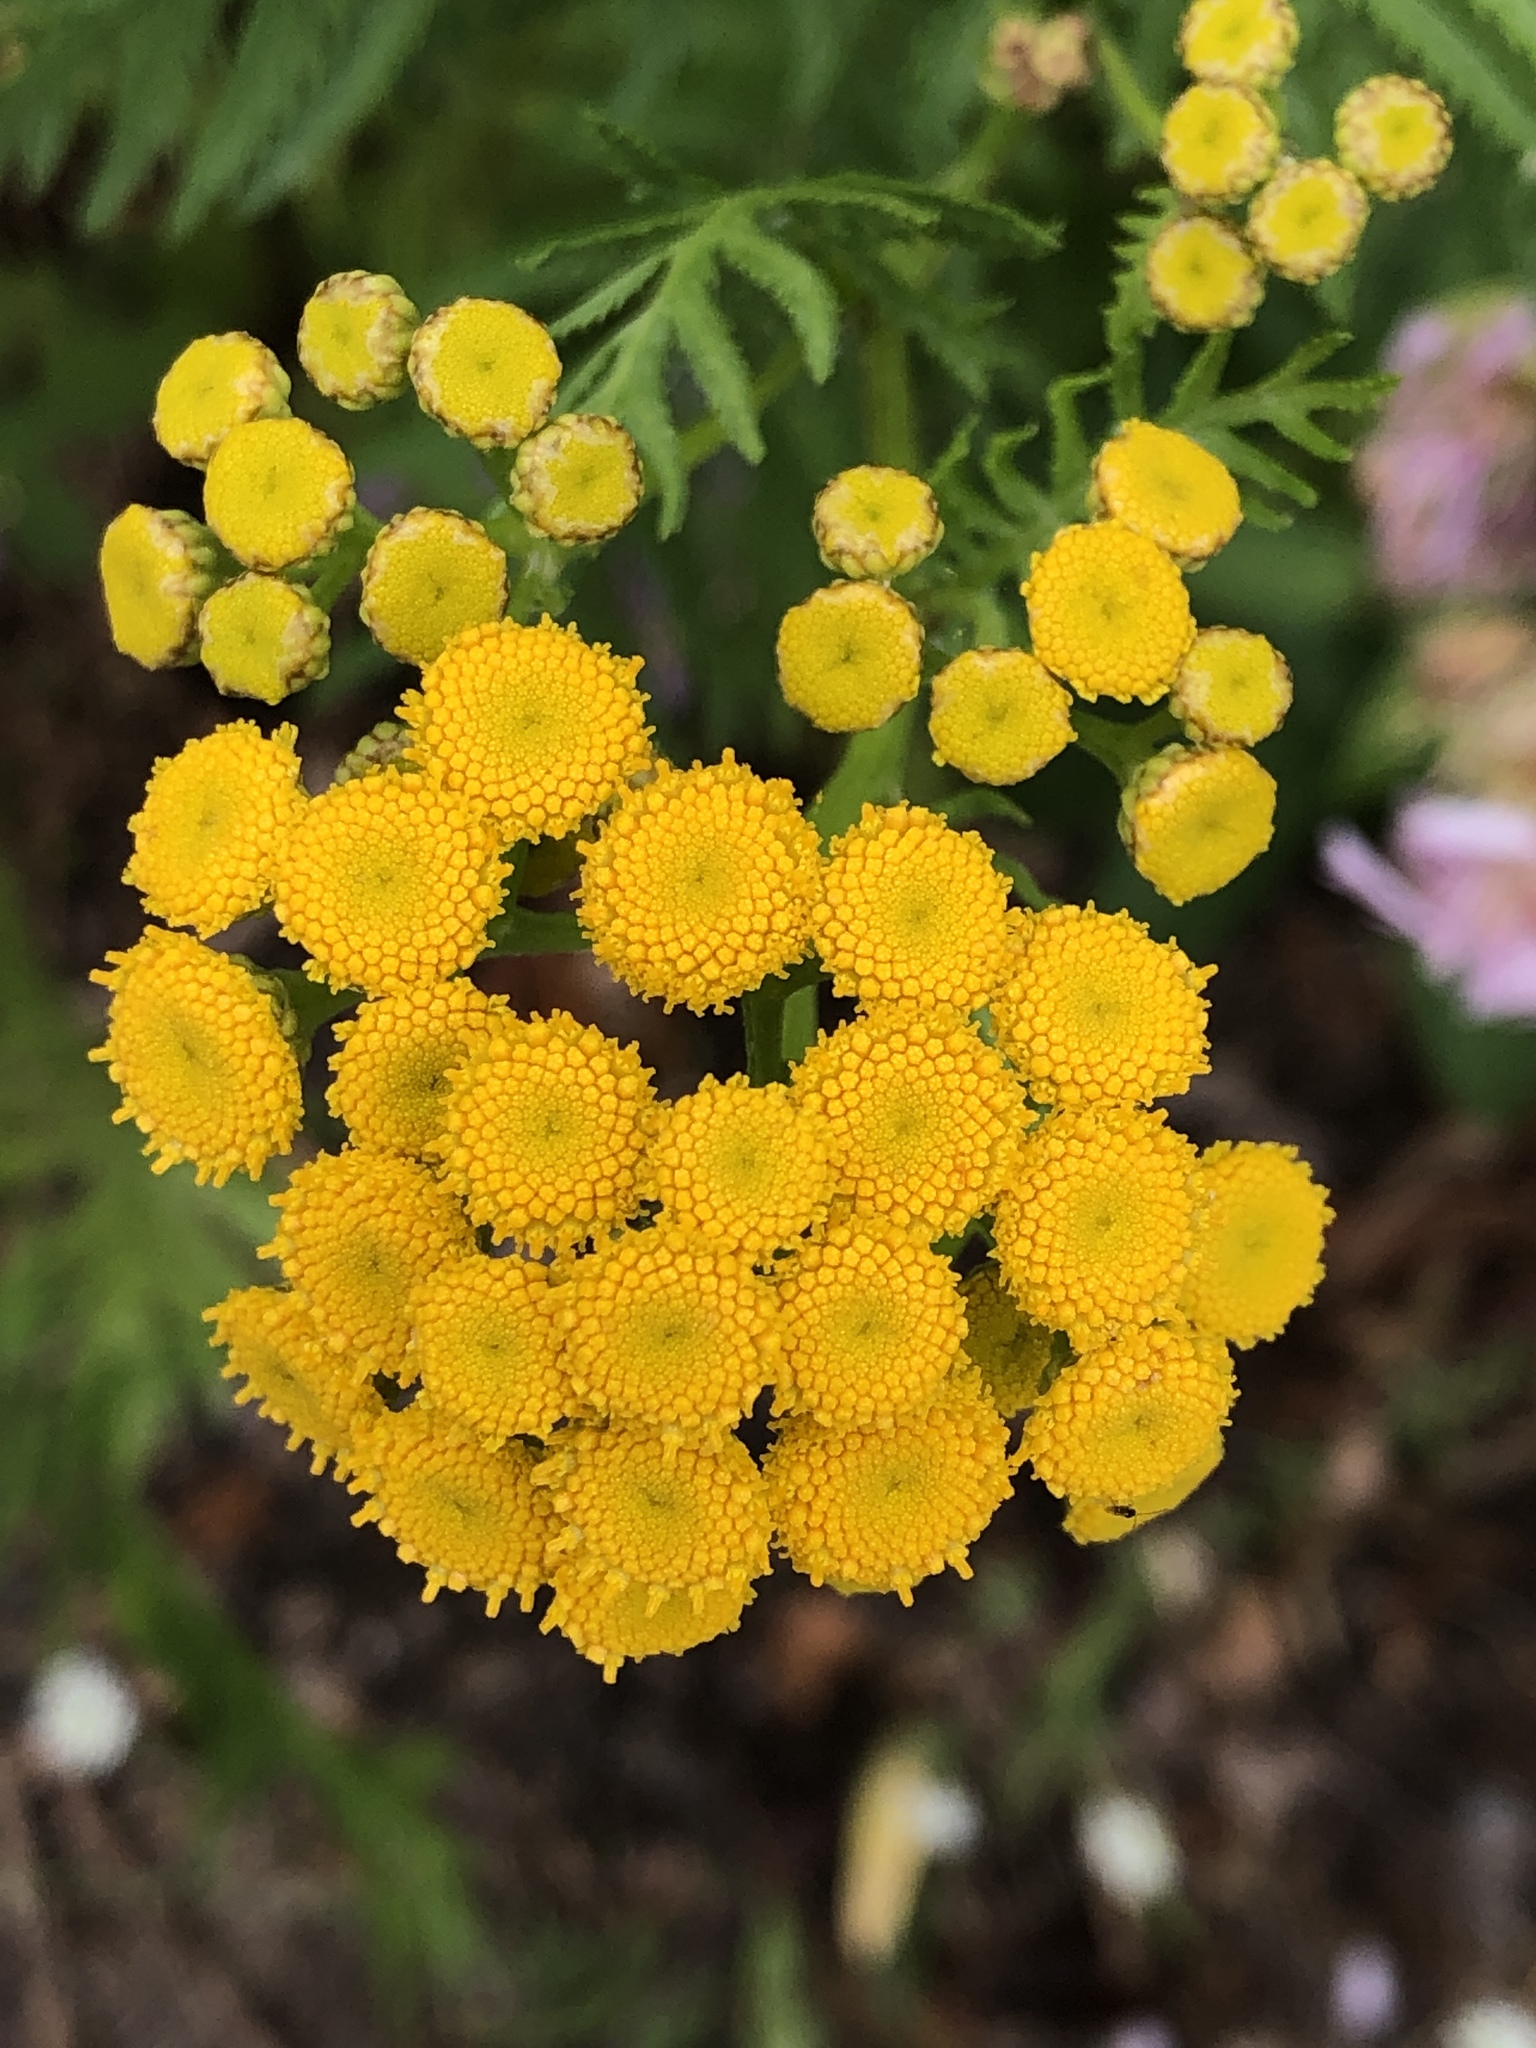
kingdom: Plantae
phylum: Tracheophyta
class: Magnoliopsida
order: Asterales
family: Asteraceae
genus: Tanacetum
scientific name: Tanacetum vulgare
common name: Common tansy
